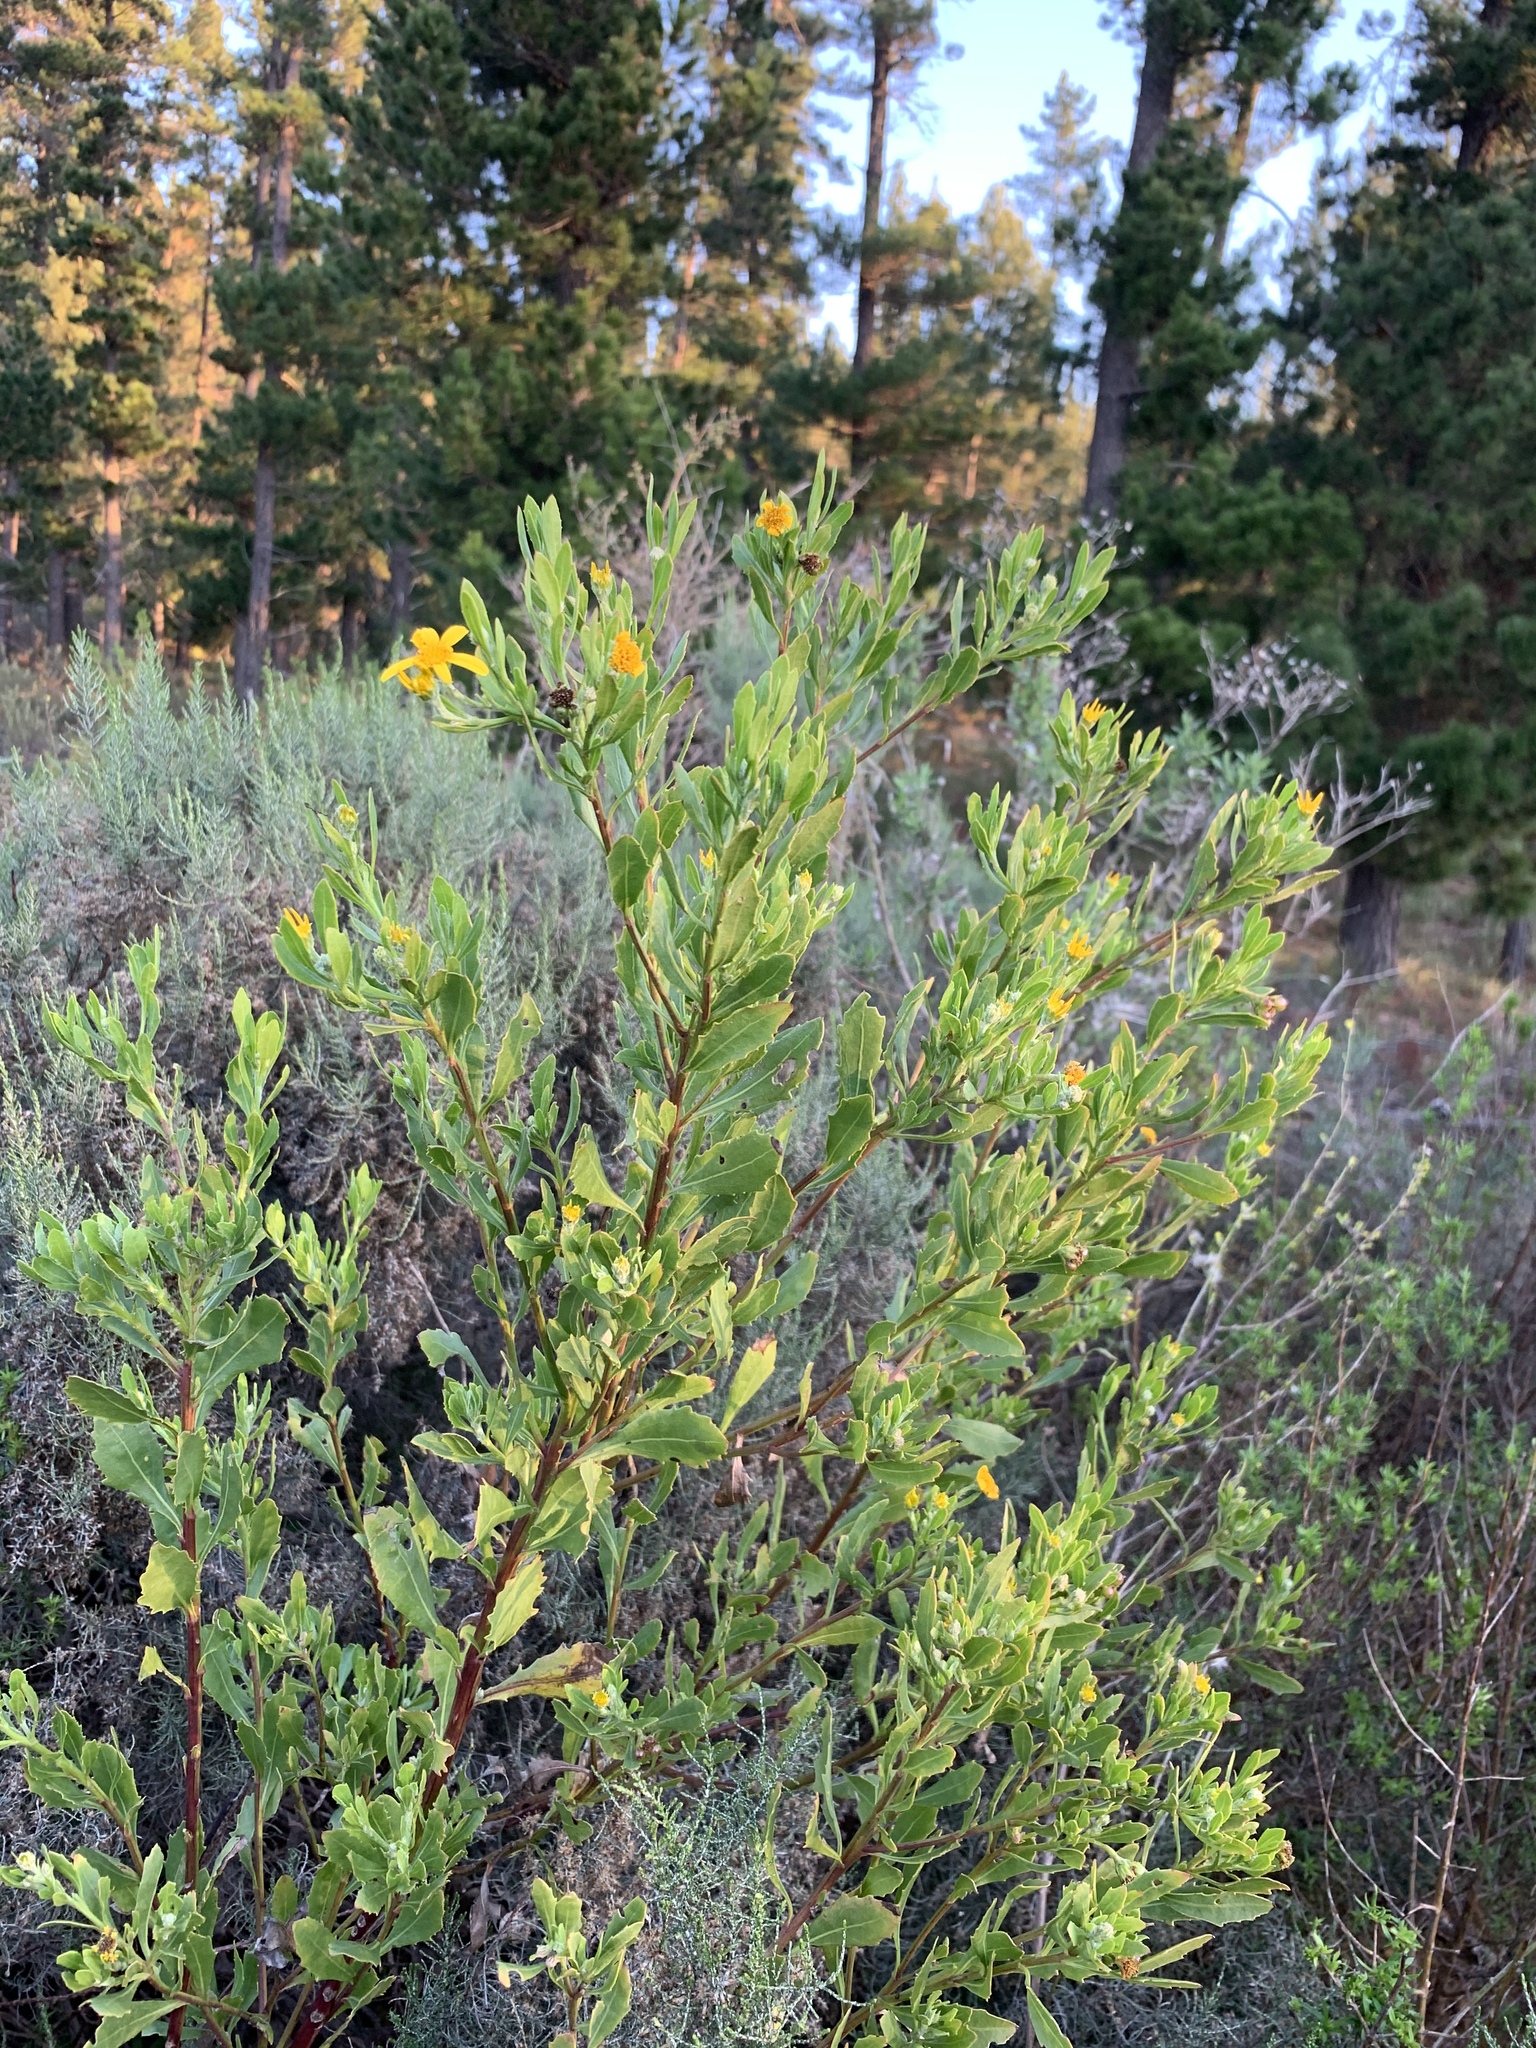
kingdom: Plantae
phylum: Tracheophyta
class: Magnoliopsida
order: Asterales
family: Asteraceae
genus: Osteospermum
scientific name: Osteospermum moniliferum
